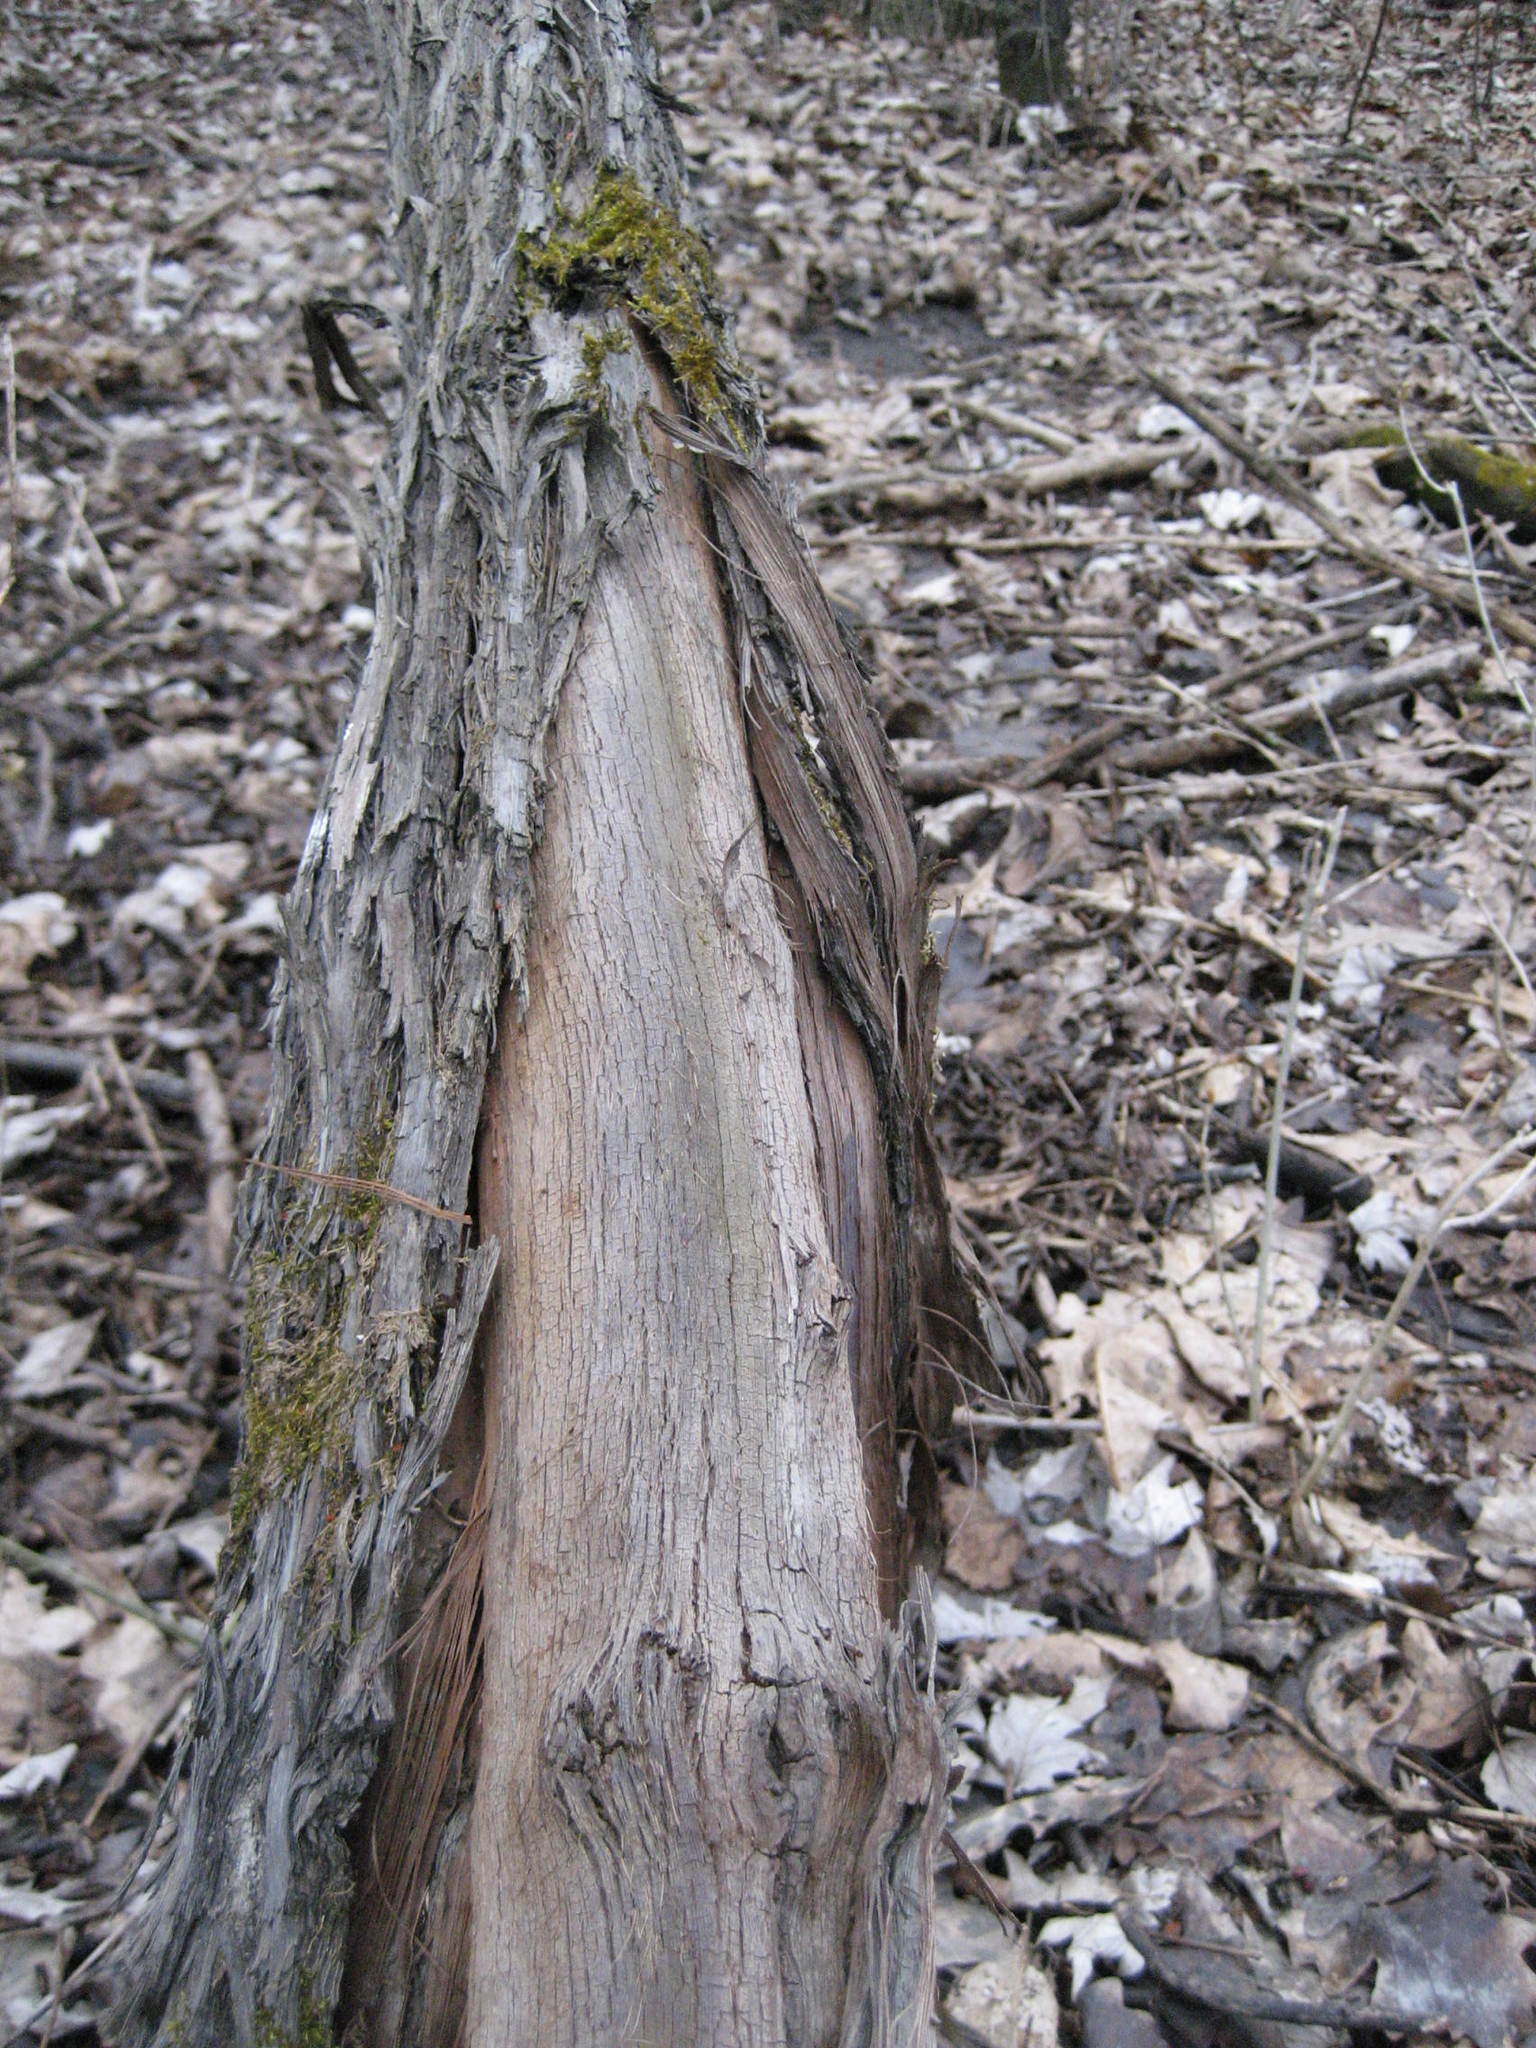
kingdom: Plantae
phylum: Tracheophyta
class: Magnoliopsida
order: Vitales
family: Vitaceae
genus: Vitis
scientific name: Vitis riparia
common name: Frost grape
